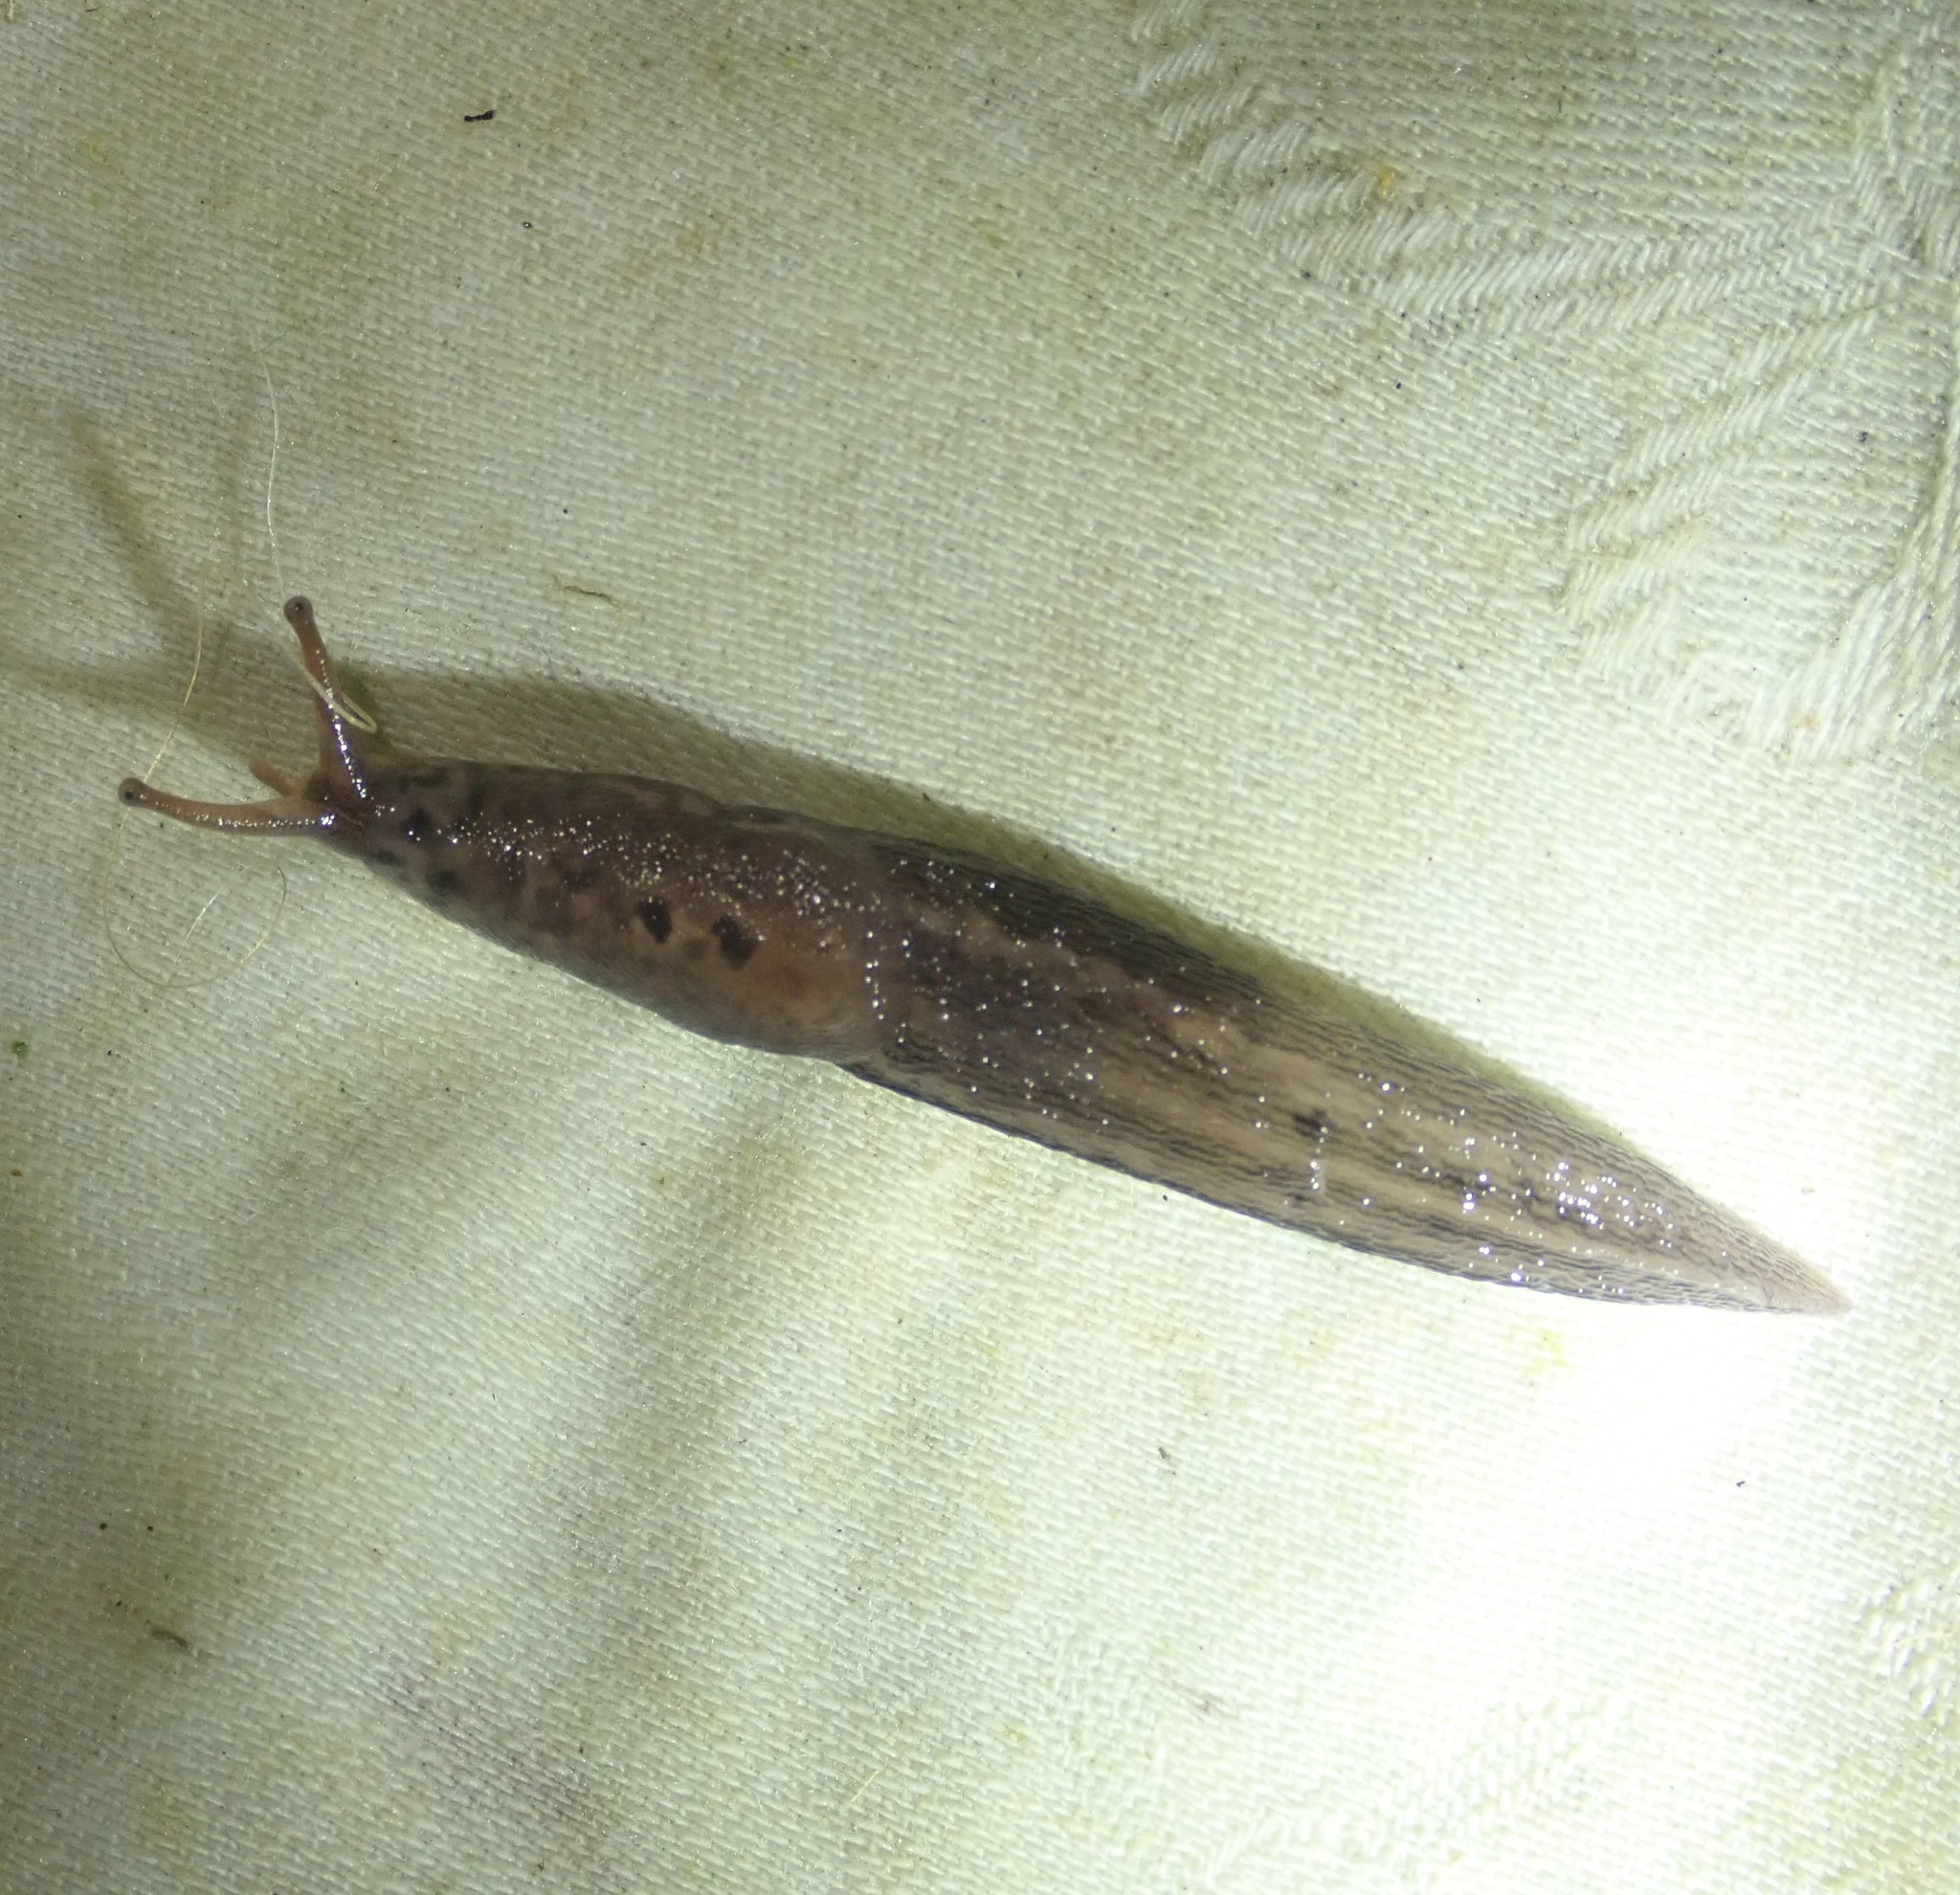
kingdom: Animalia
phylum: Mollusca
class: Gastropoda
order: Stylommatophora
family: Limacidae
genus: Limax
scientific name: Limax maximus
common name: Great grey slug
